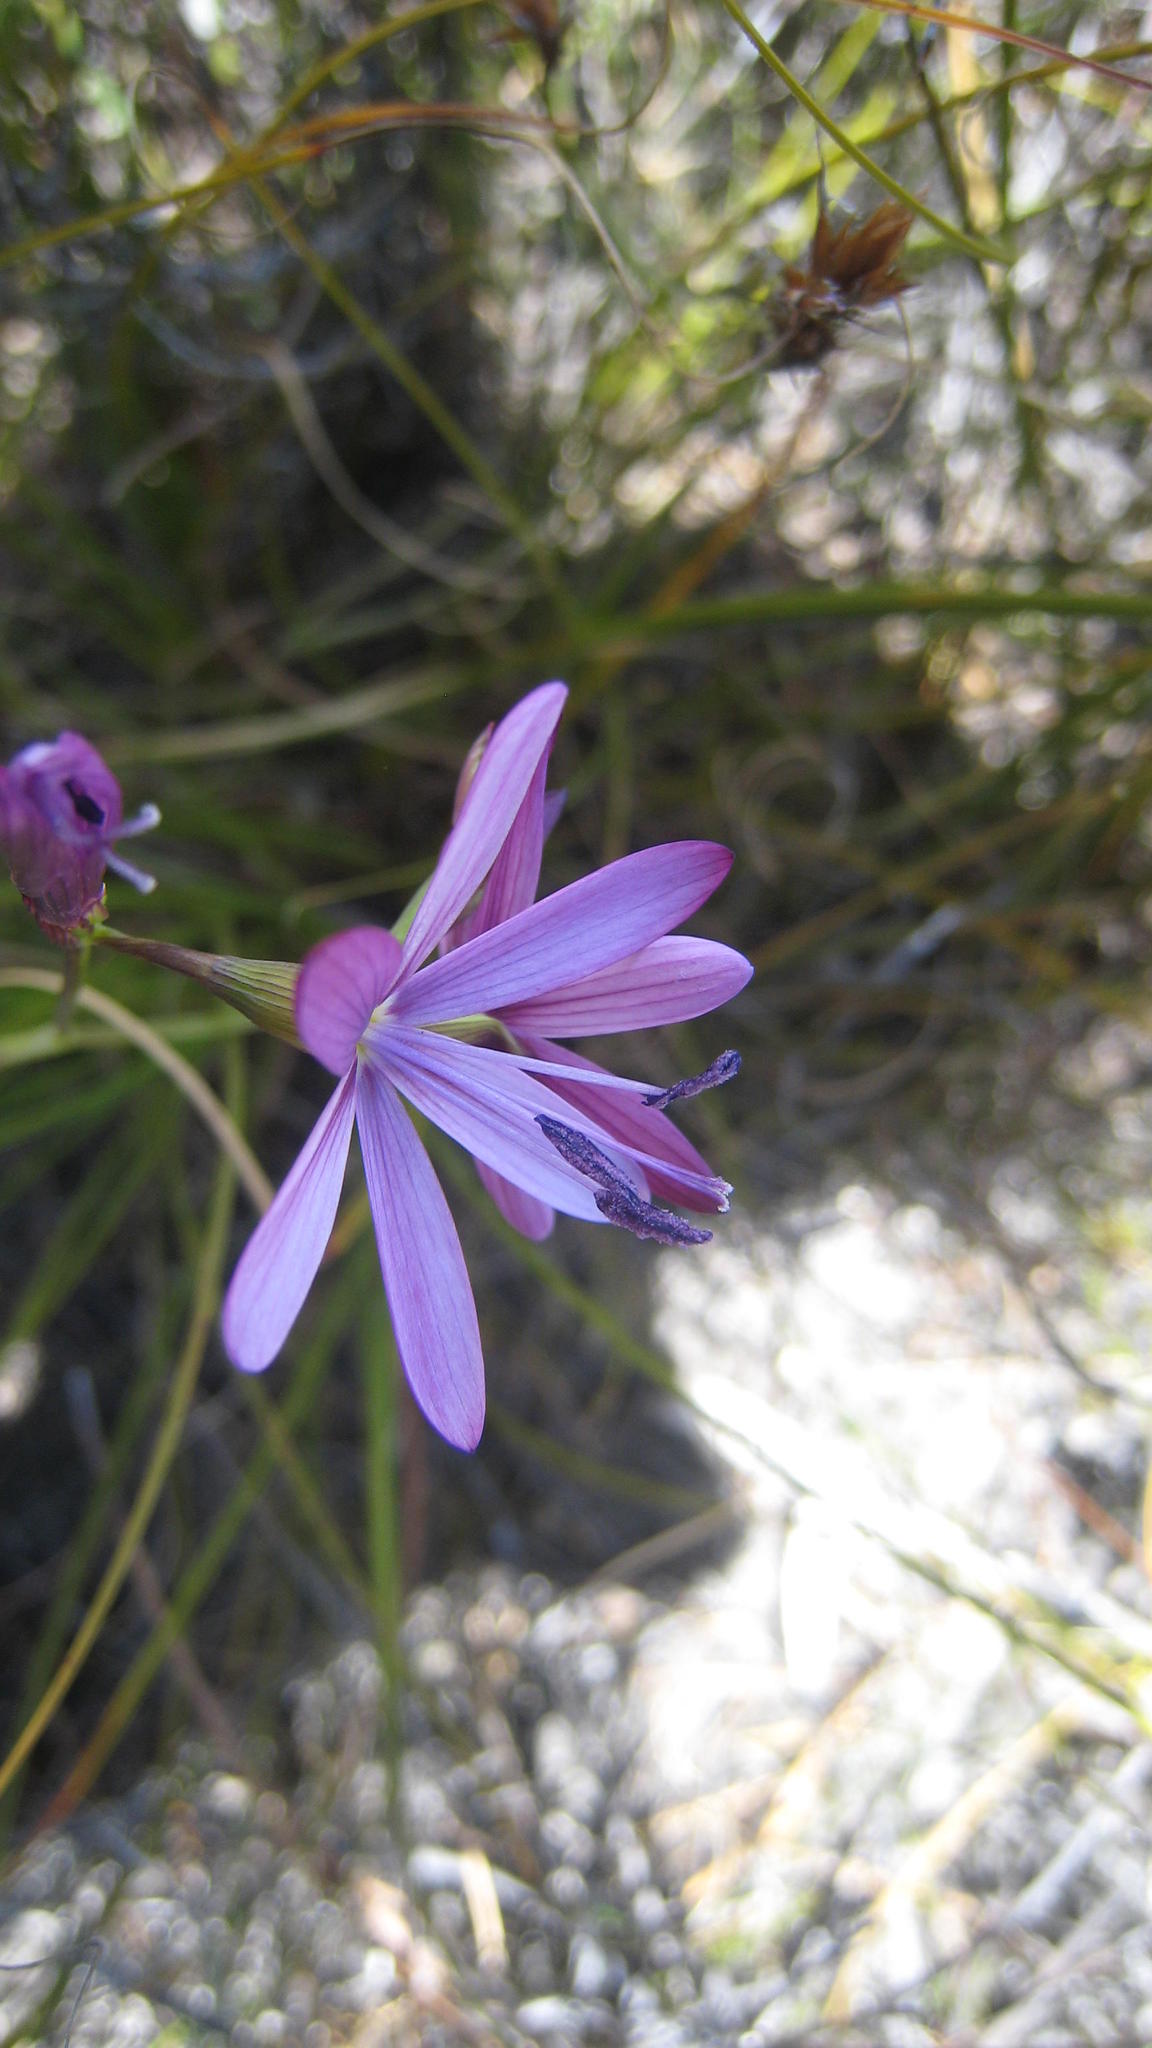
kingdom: Plantae
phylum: Tracheophyta
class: Liliopsida
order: Asparagales
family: Iridaceae
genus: Geissorhiza
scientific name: Geissorhiza ramosa
